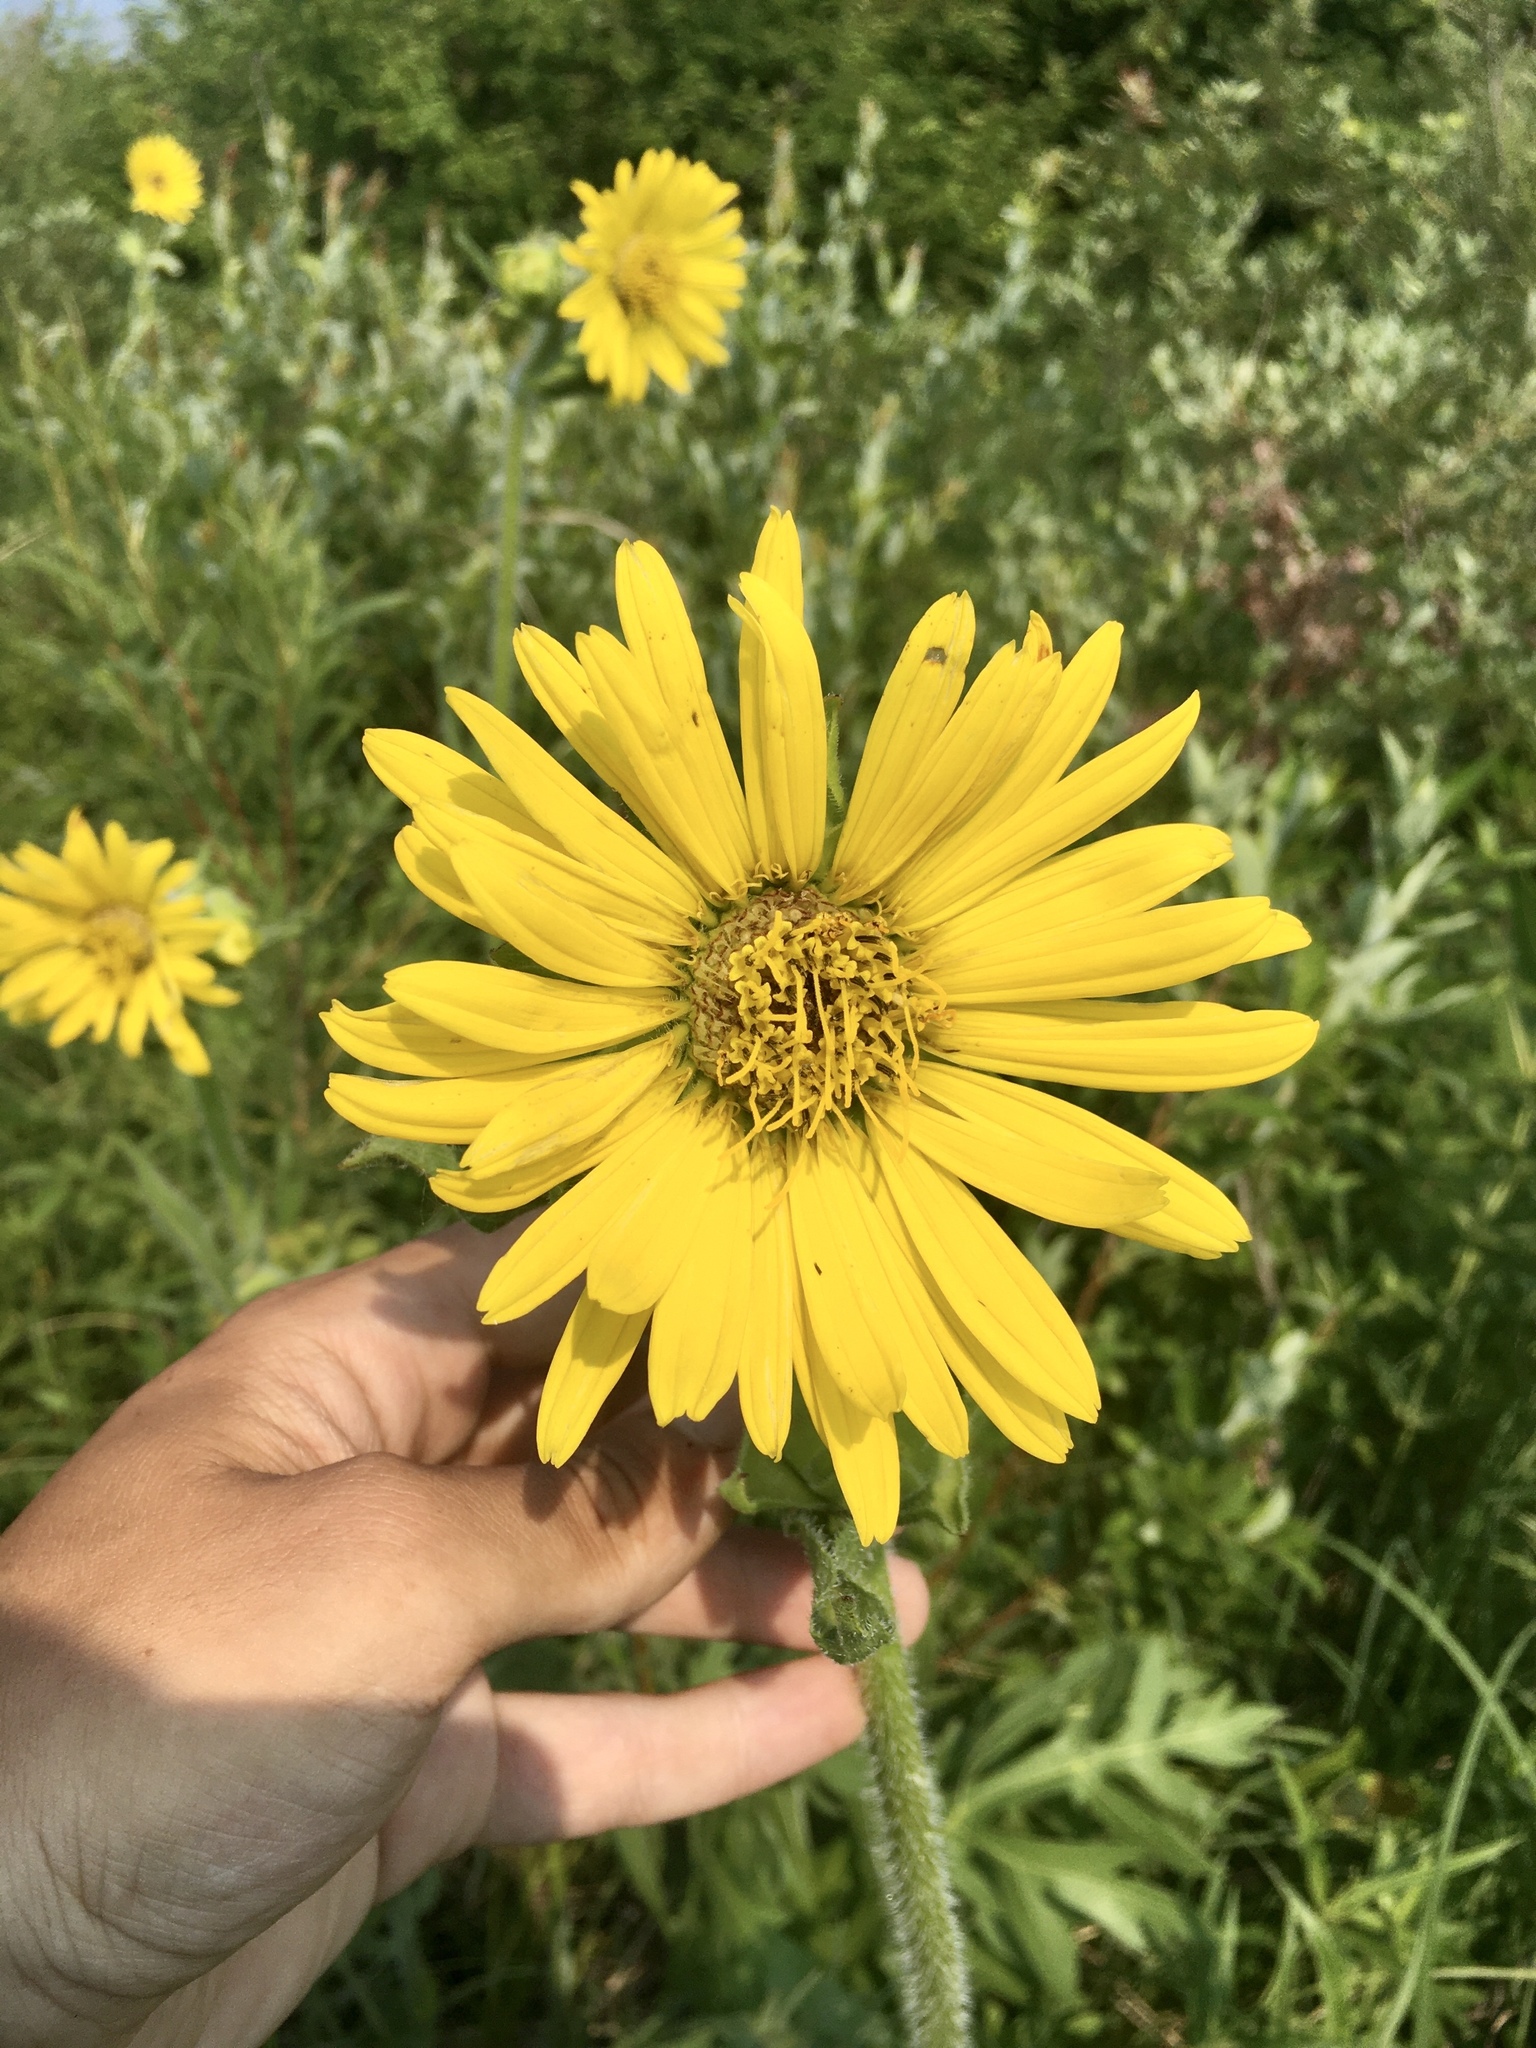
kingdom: Plantae
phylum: Tracheophyta
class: Magnoliopsida
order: Asterales
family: Asteraceae
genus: Silphium
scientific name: Silphium laciniatum
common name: Polarplant
